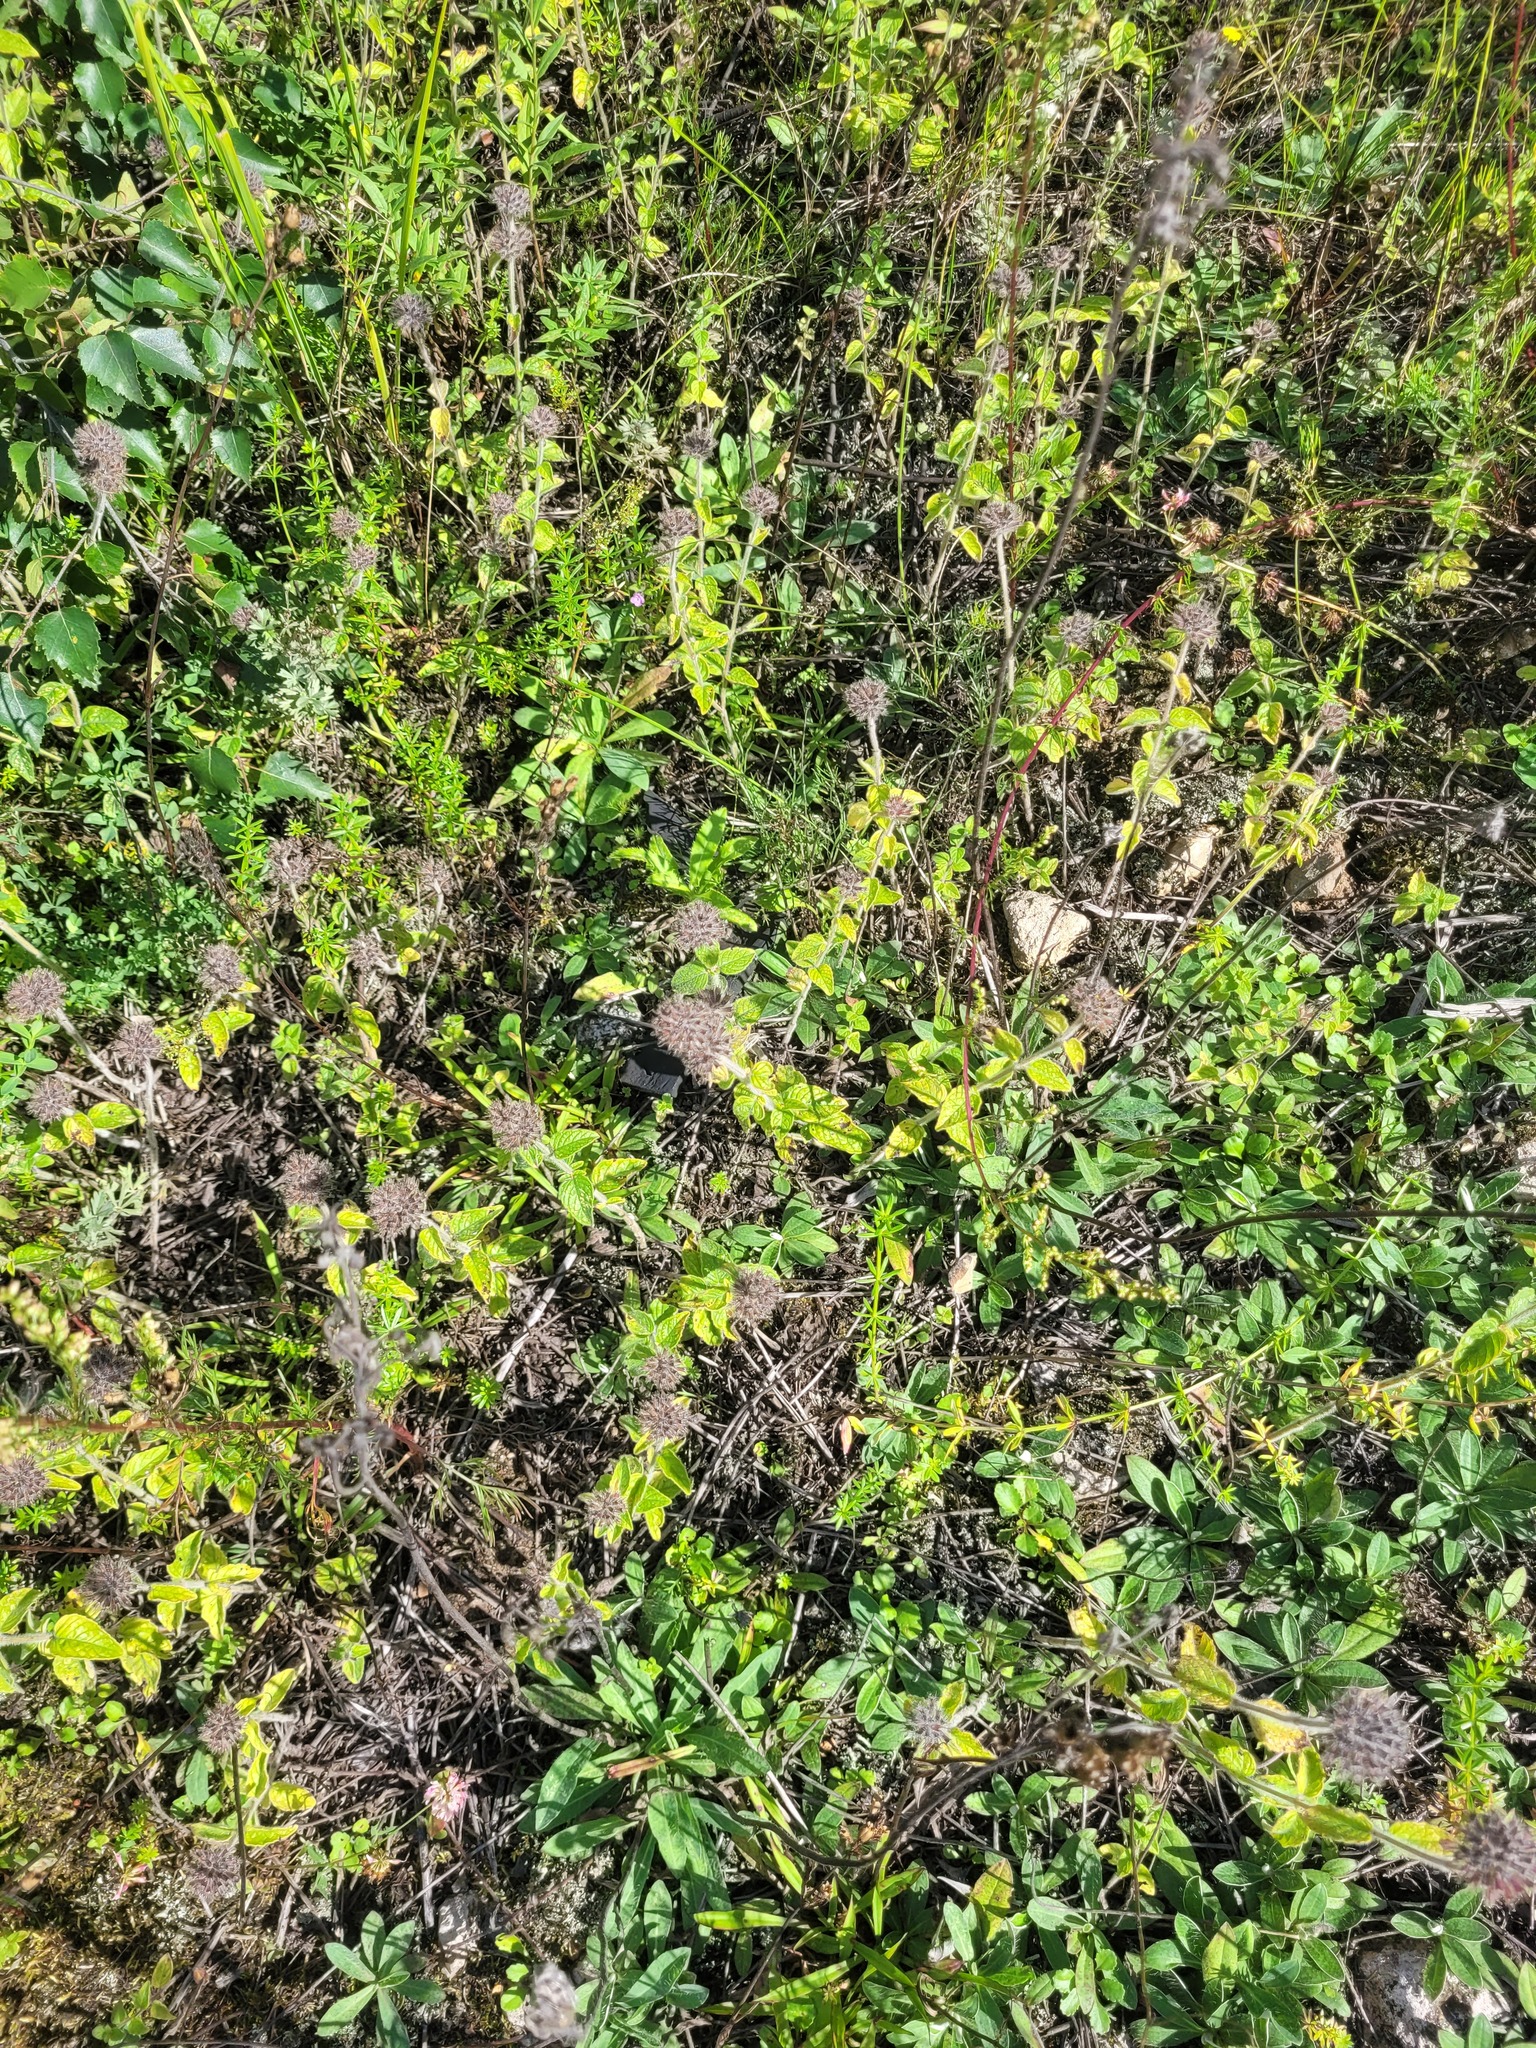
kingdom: Plantae
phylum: Tracheophyta
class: Magnoliopsida
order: Lamiales
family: Lamiaceae
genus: Clinopodium
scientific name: Clinopodium vulgare
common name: Wild basil
